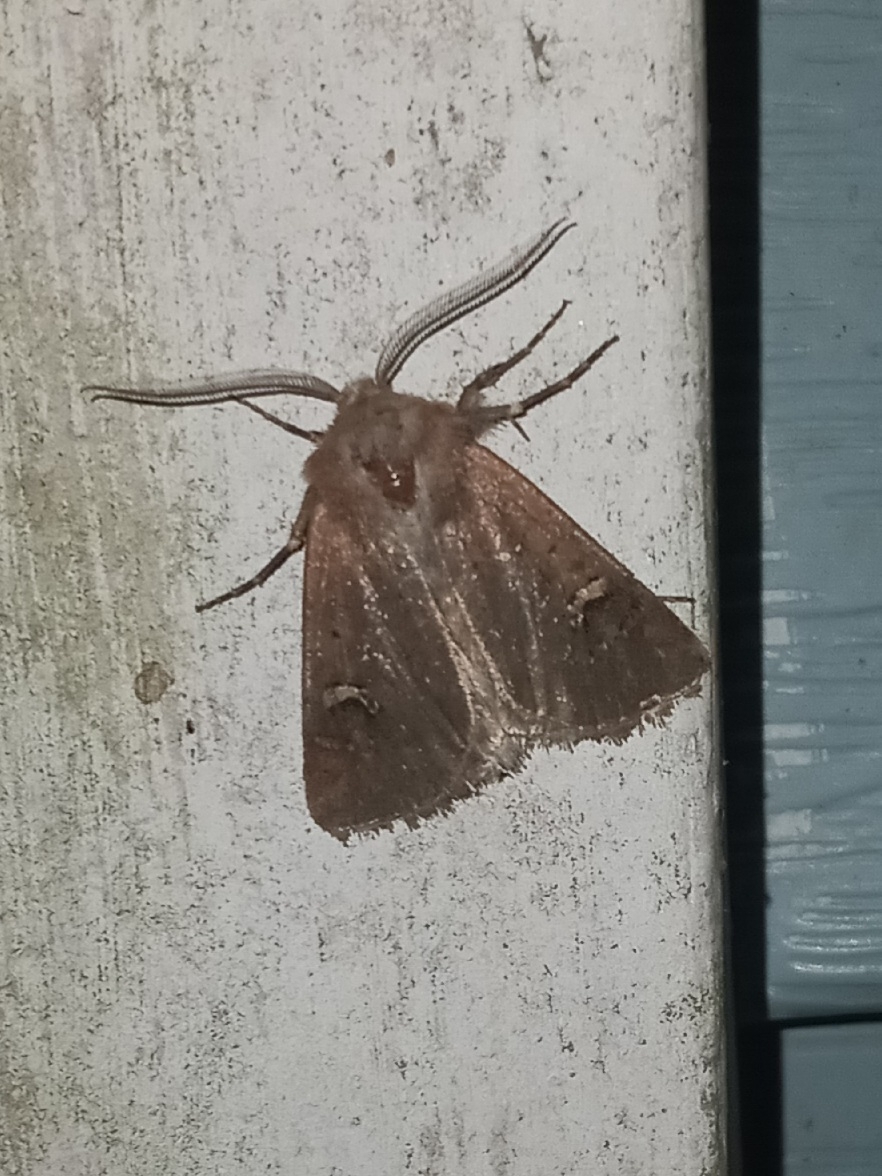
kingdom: Animalia
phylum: Arthropoda
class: Insecta
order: Lepidoptera
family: Noctuidae
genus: Eucoptocnemis
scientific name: Eucoptocnemis fimbriaris
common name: Fringed dart
